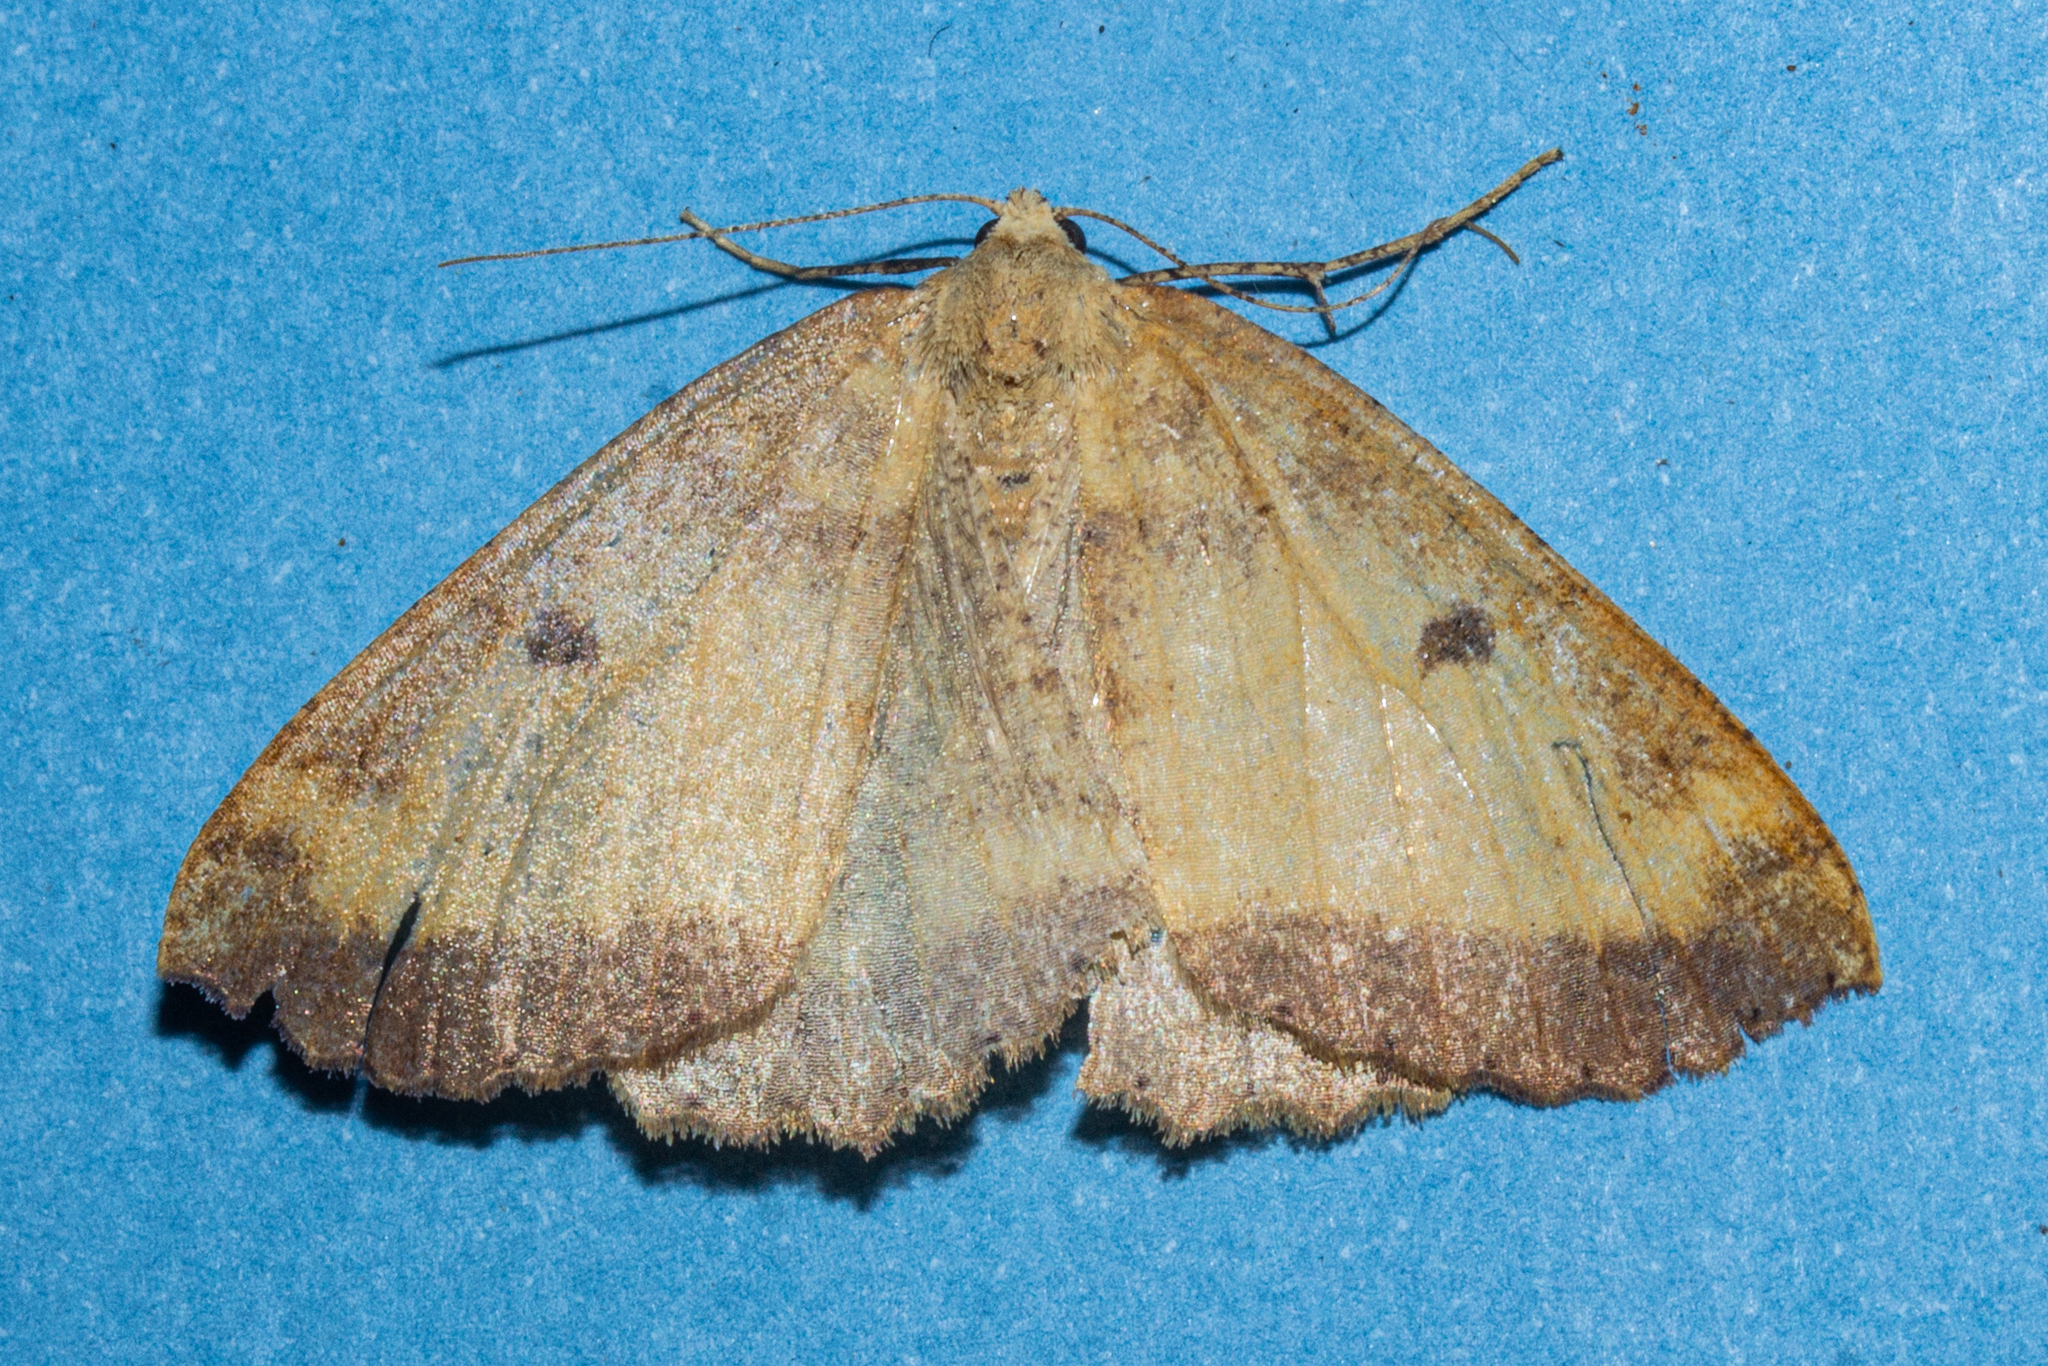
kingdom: Animalia
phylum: Arthropoda
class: Insecta
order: Lepidoptera
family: Geometridae
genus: Cleora
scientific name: Cleora scriptaria
